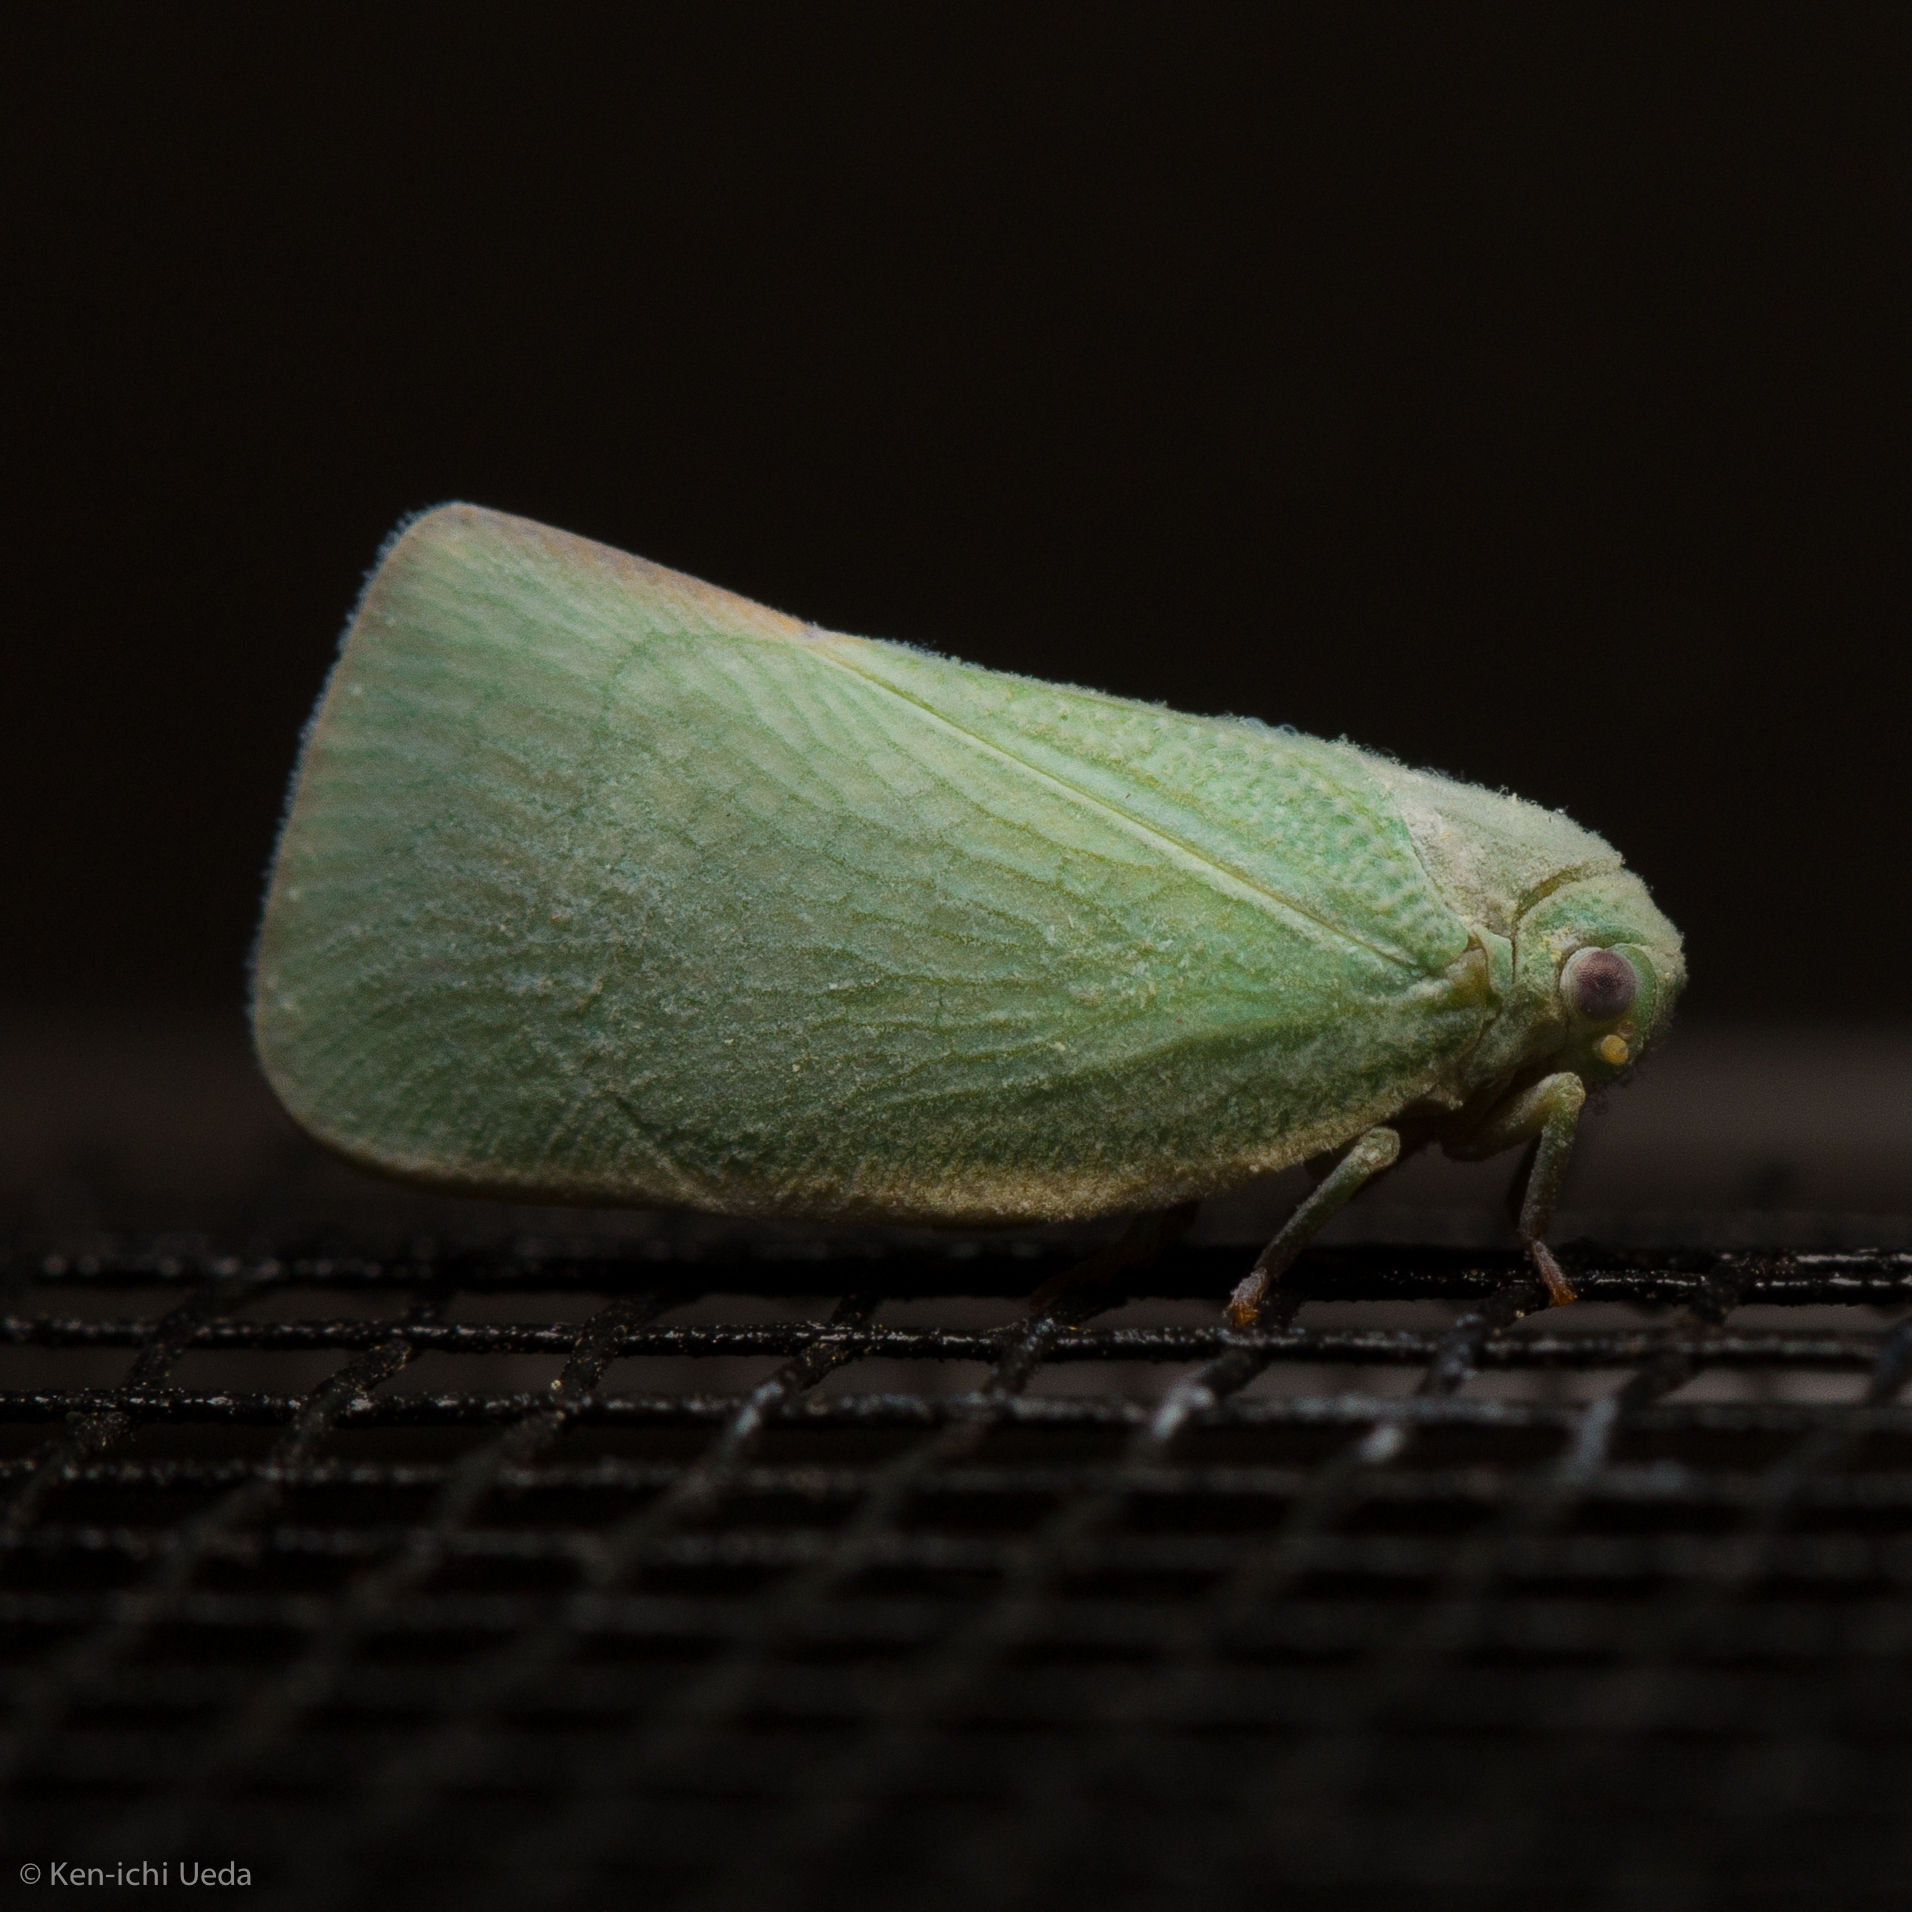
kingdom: Animalia
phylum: Arthropoda
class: Insecta
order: Hemiptera
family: Flatidae
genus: Flatormenis
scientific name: Flatormenis proxima
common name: Northern flatid planthopper
